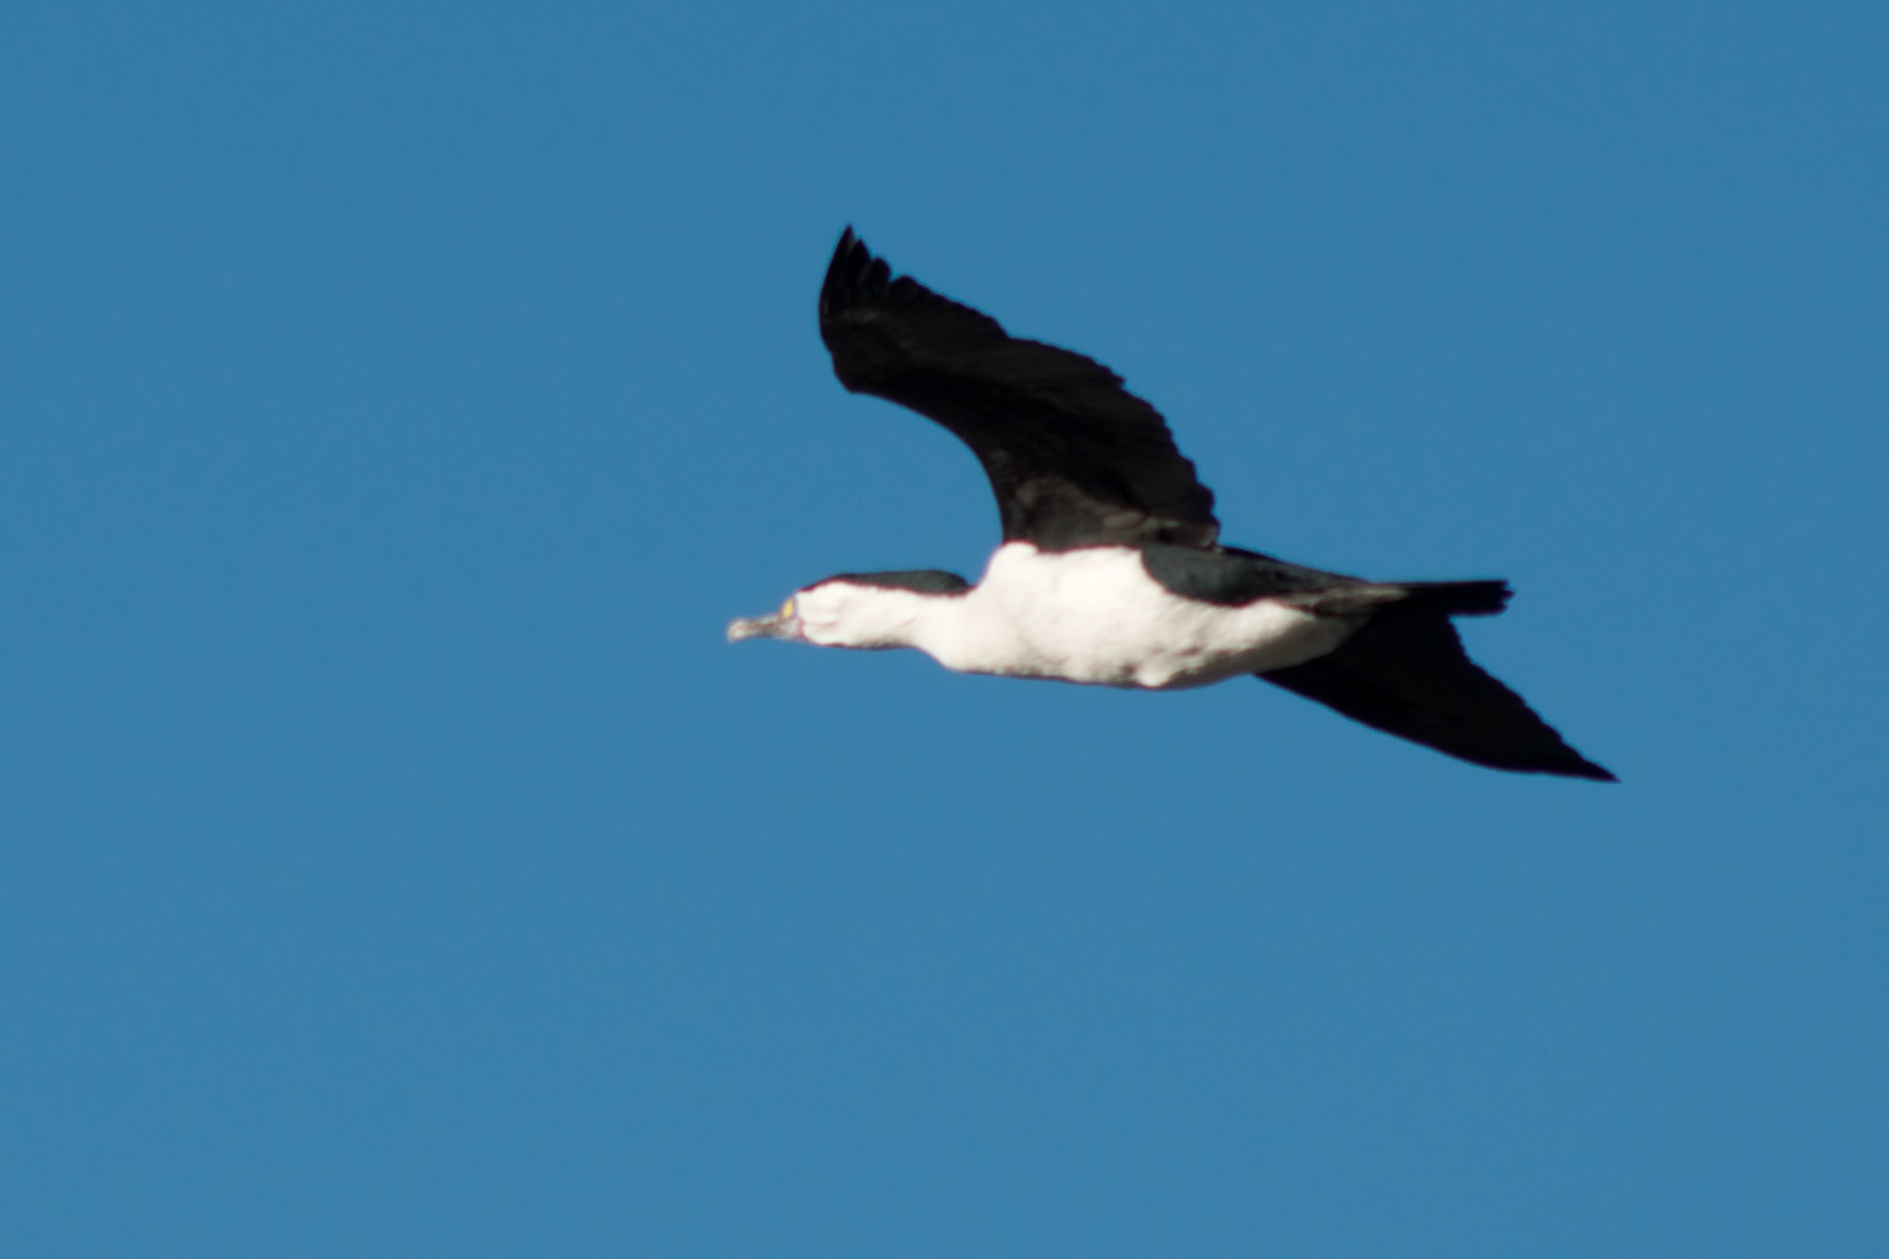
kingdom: Animalia
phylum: Chordata
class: Aves
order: Suliformes
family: Phalacrocoracidae
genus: Phalacrocorax
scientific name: Phalacrocorax varius
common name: Pied cormorant
